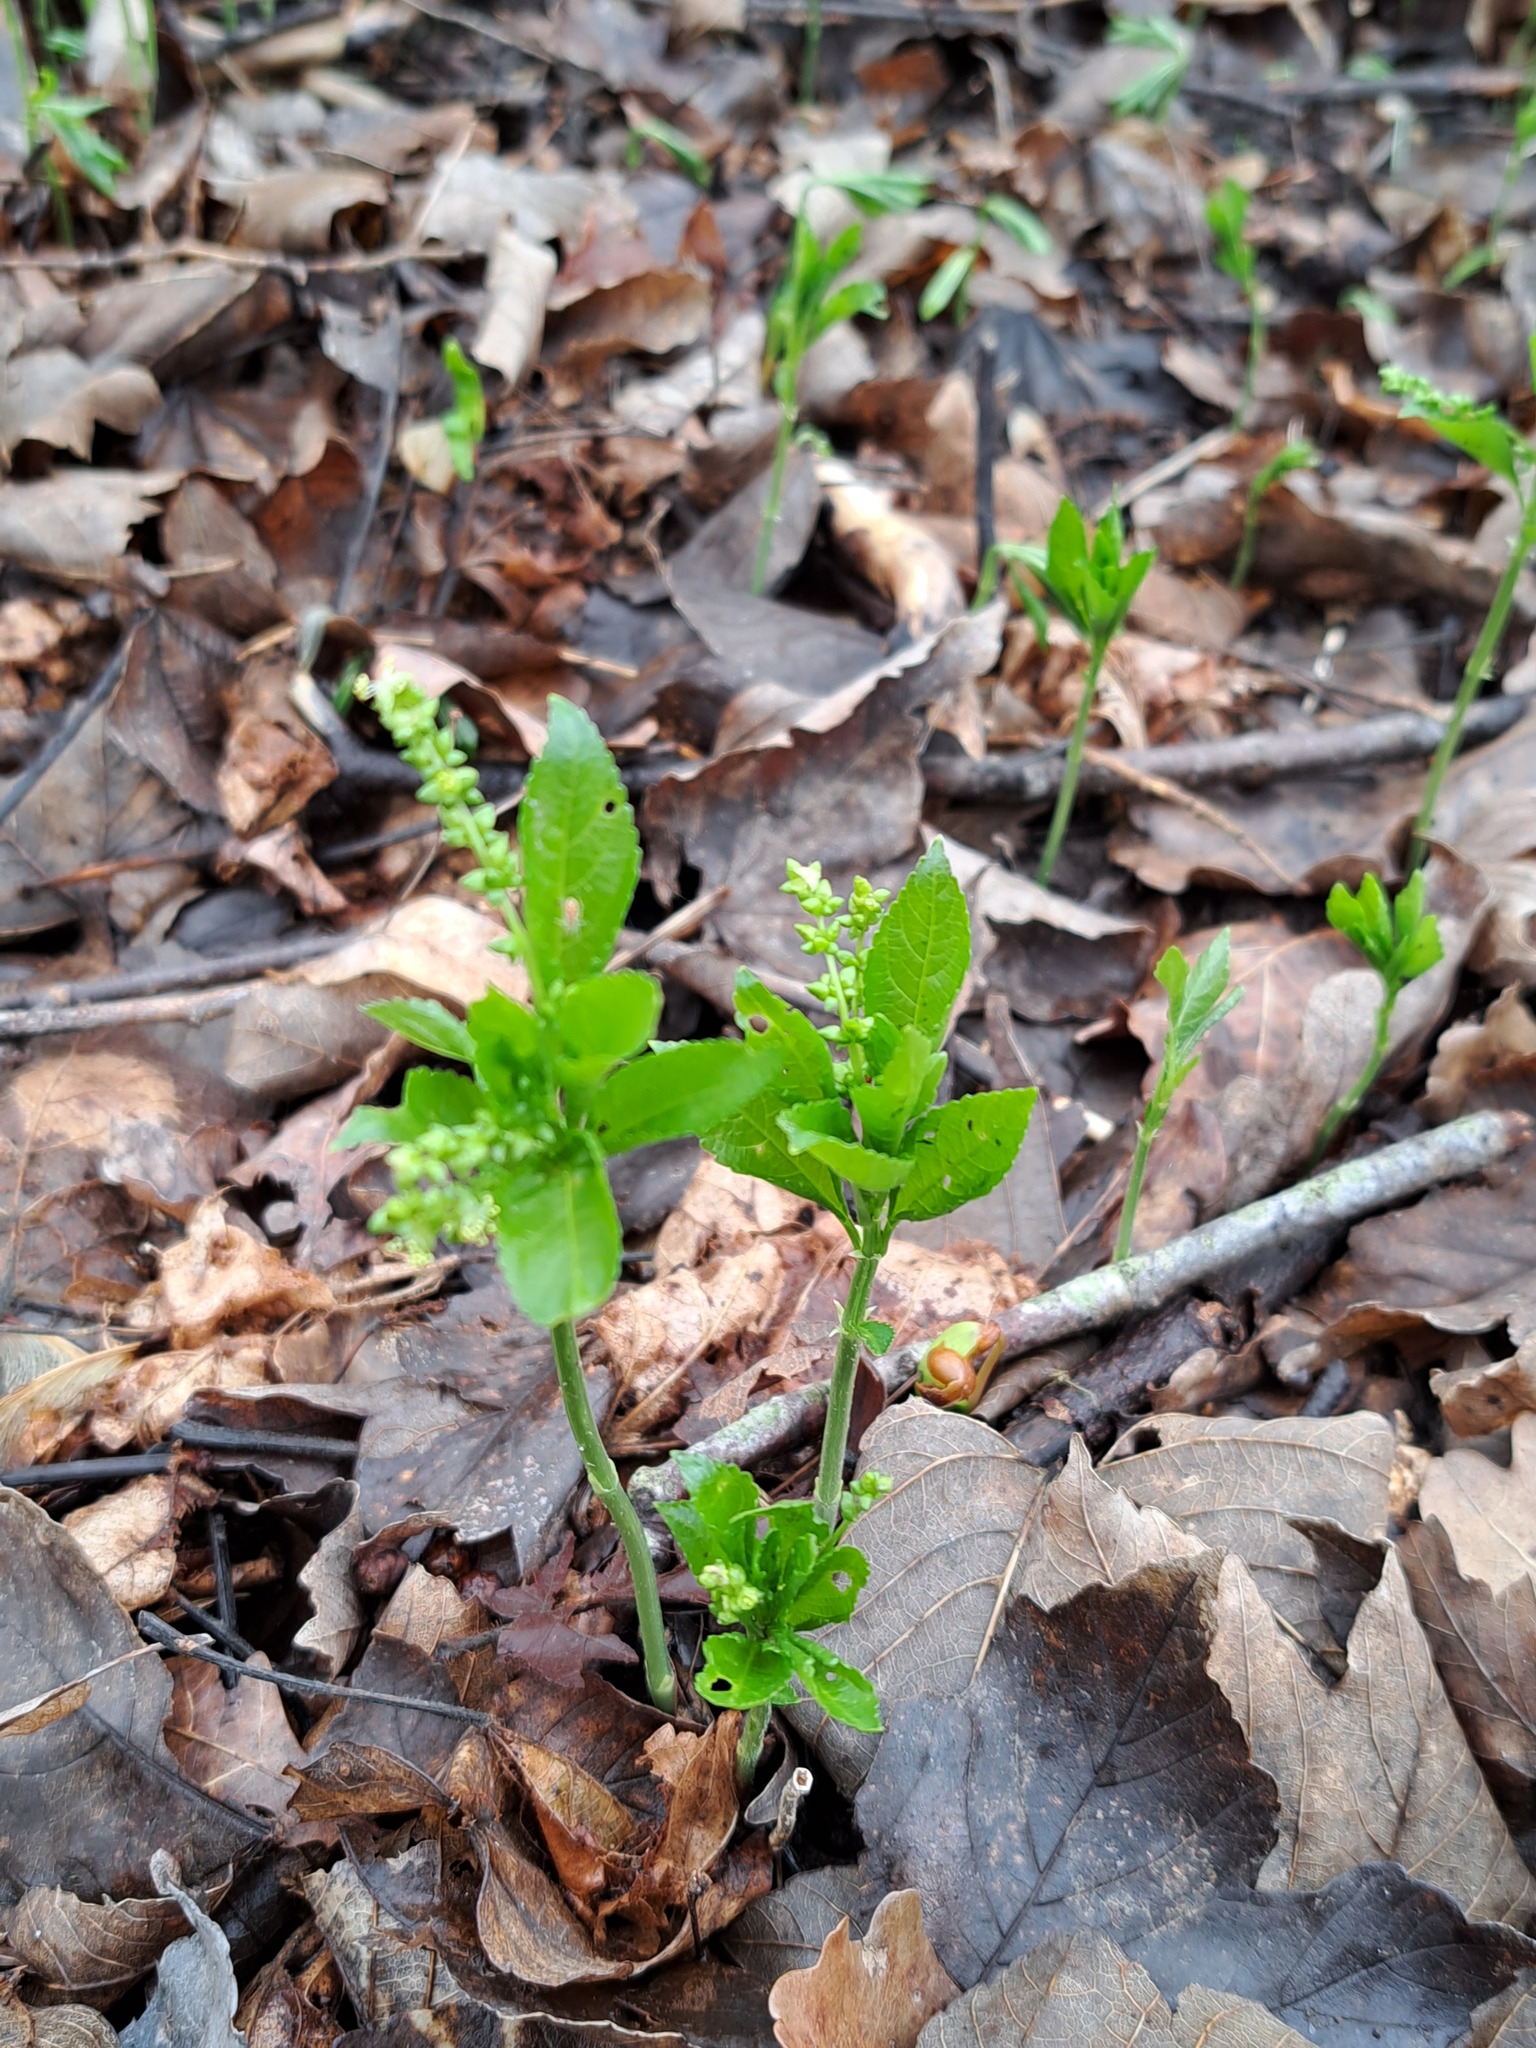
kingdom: Plantae
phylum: Tracheophyta
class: Magnoliopsida
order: Malpighiales
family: Euphorbiaceae
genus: Mercurialis
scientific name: Mercurialis perennis
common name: Dog mercury
